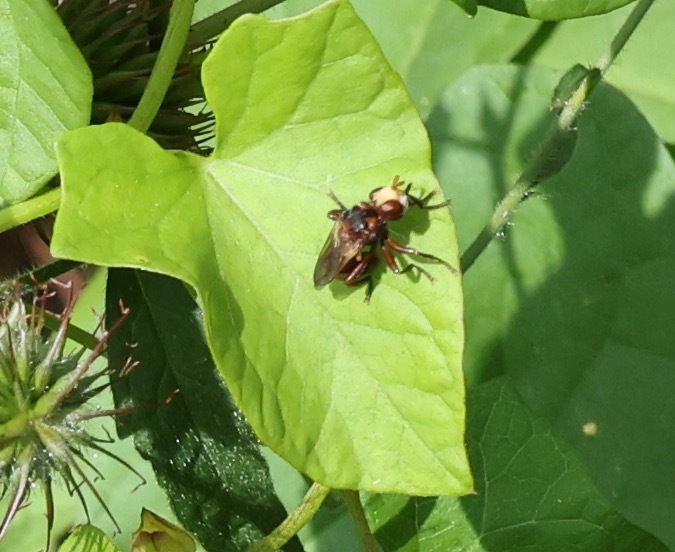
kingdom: Animalia
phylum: Arthropoda
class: Insecta
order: Diptera
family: Conopidae
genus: Sicus
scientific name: Sicus ferrugineus
